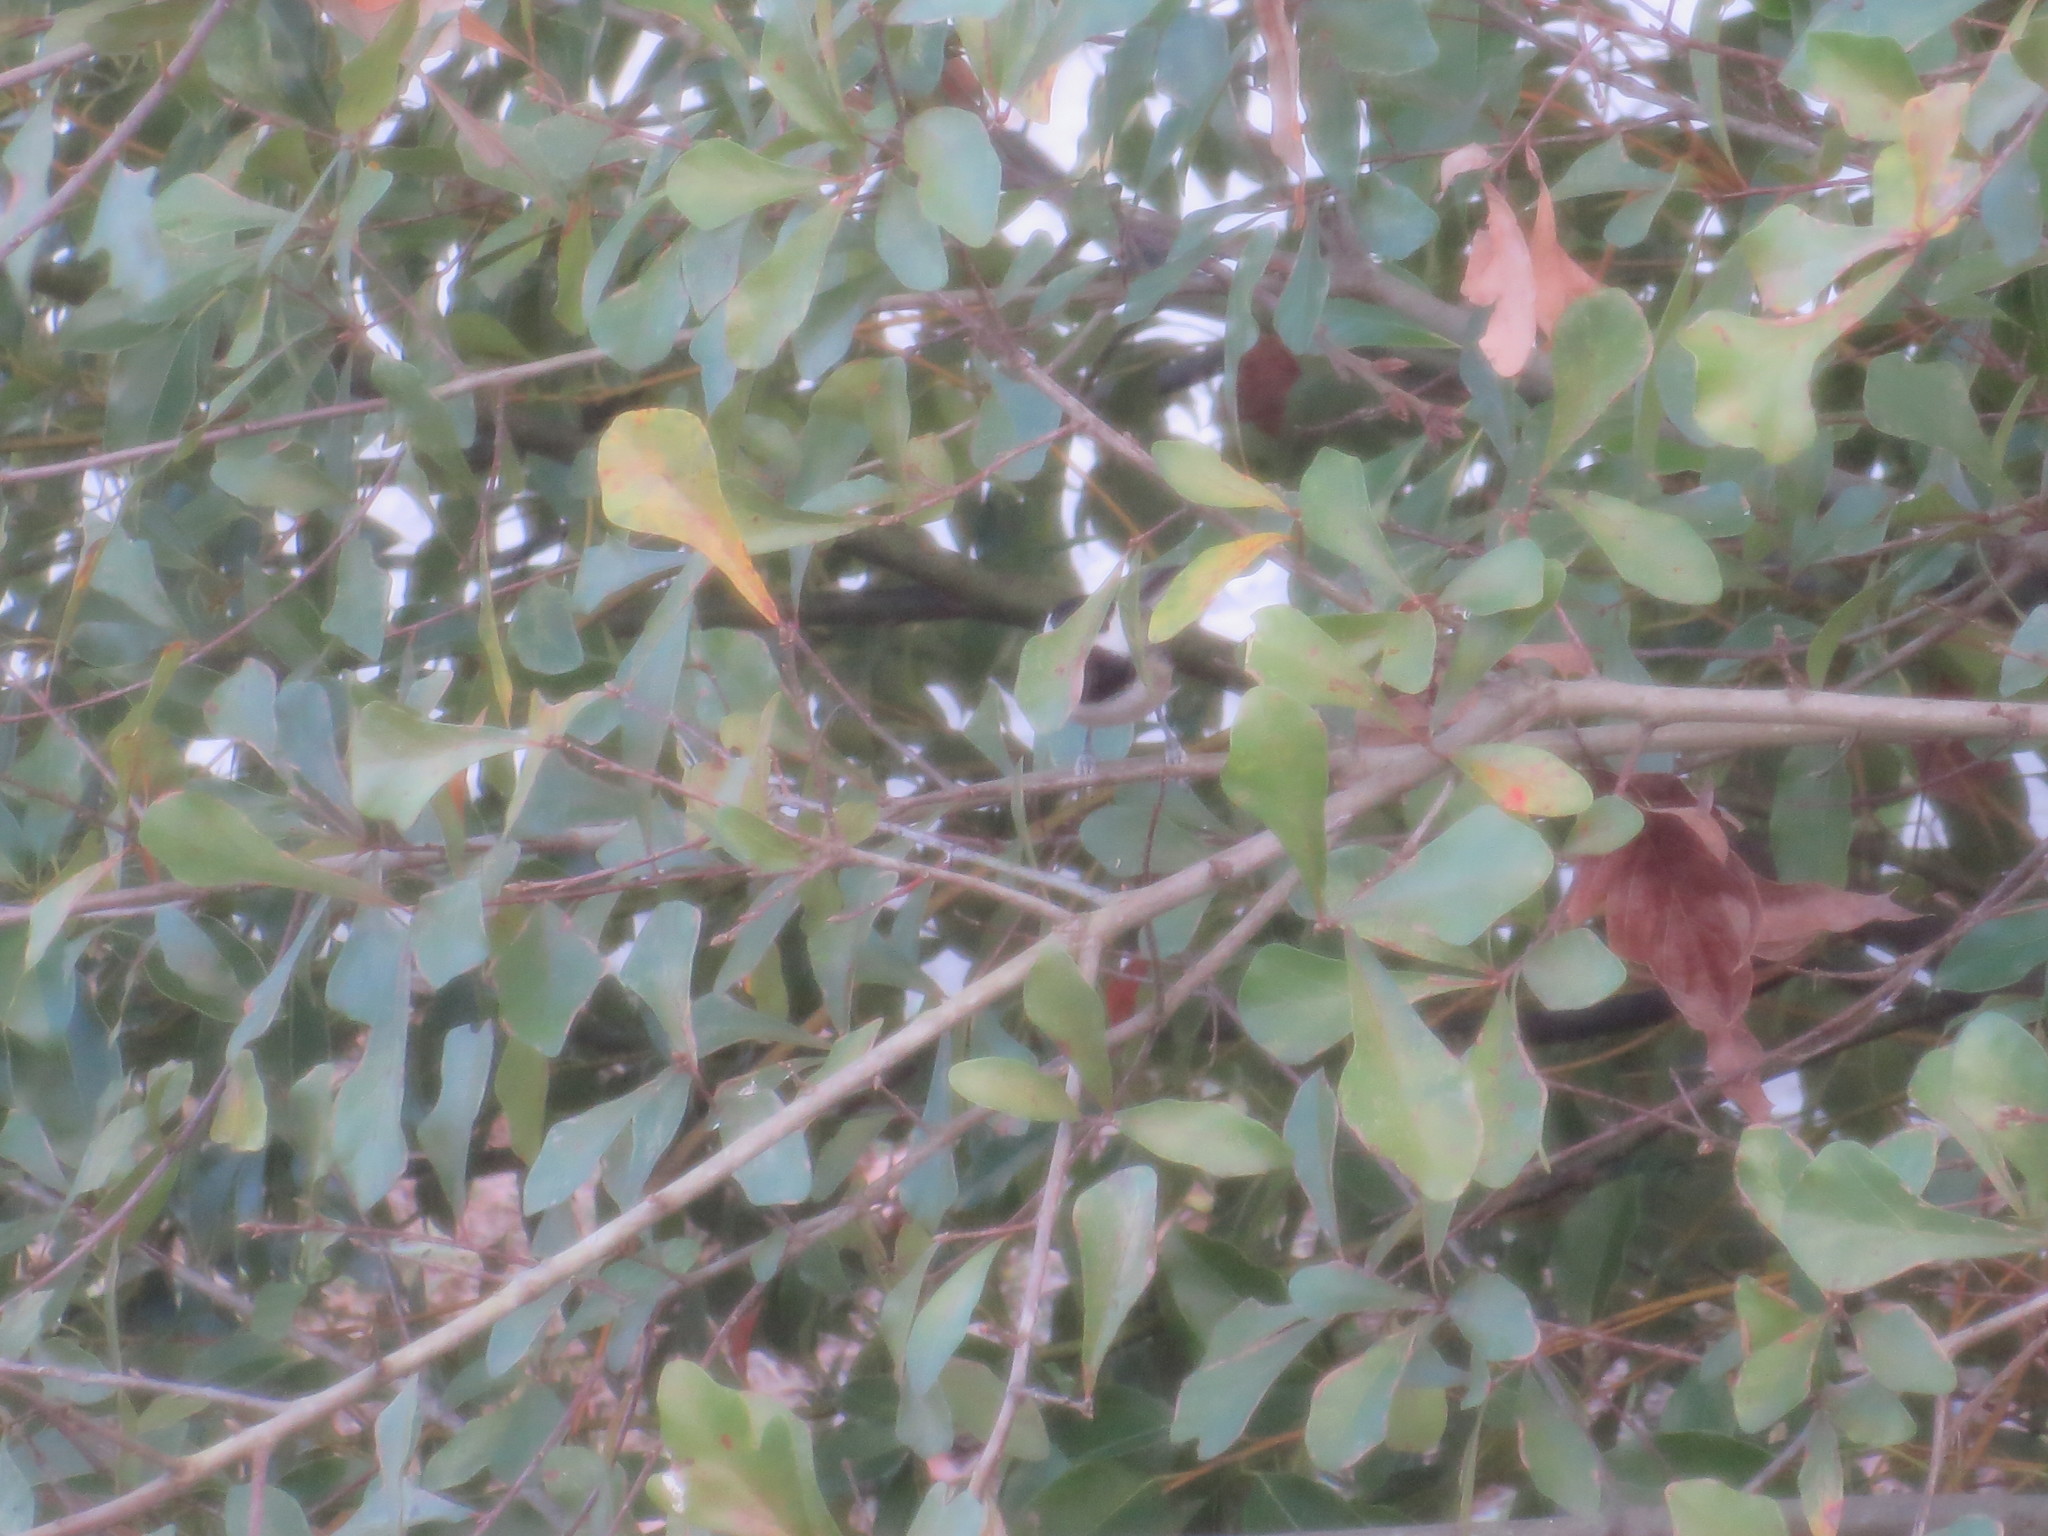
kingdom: Animalia
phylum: Chordata
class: Aves
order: Passeriformes
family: Paridae
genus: Poecile
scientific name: Poecile carolinensis
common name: Carolina chickadee
